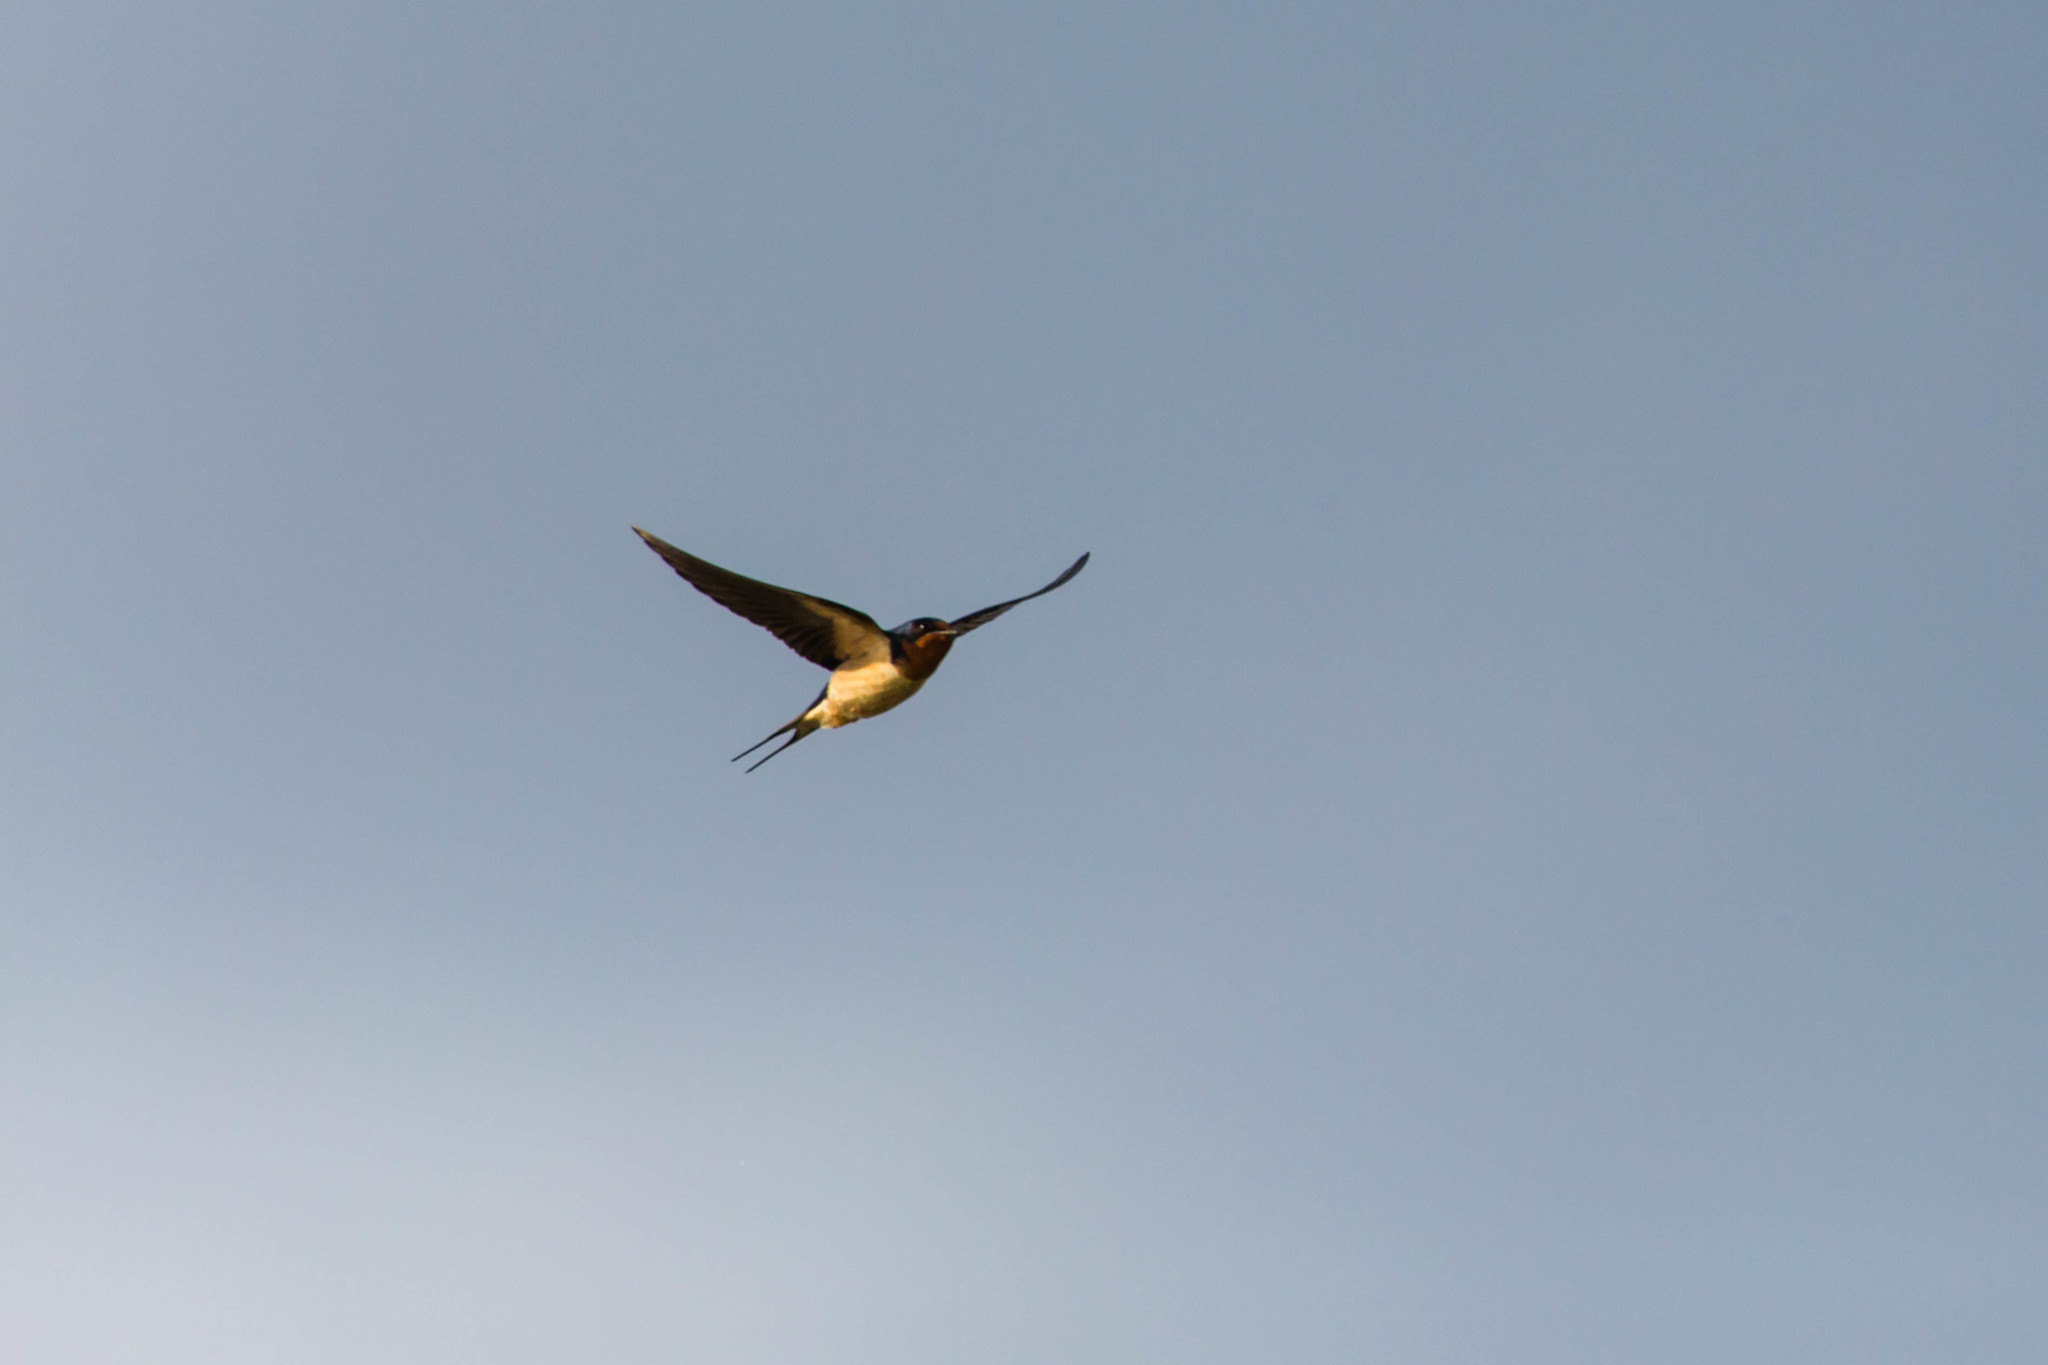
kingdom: Animalia
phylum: Chordata
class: Aves
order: Passeriformes
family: Hirundinidae
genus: Hirundo
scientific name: Hirundo rustica
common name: Barn swallow
